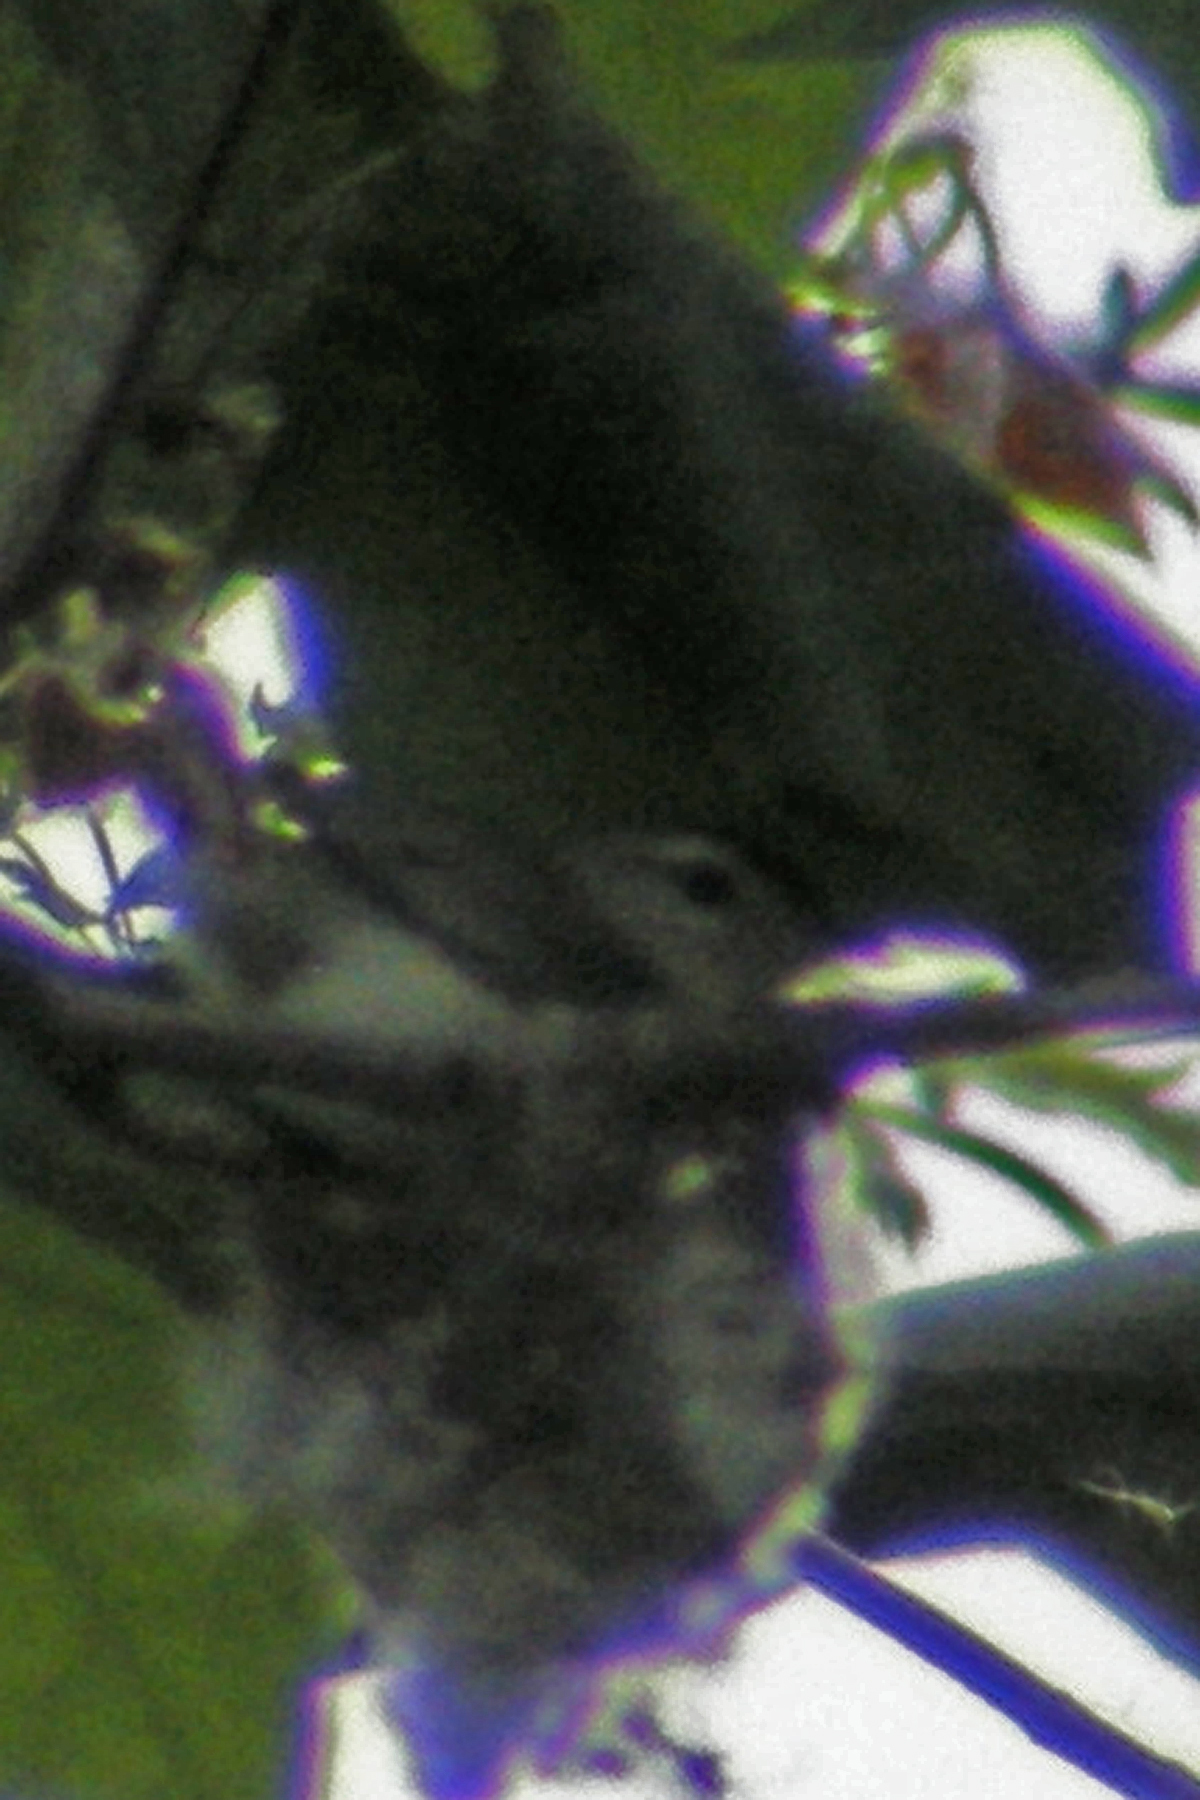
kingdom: Animalia
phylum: Chordata
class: Aves
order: Passeriformes
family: Vireonidae
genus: Vireo
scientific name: Vireo gilvus
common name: Warbling vireo
